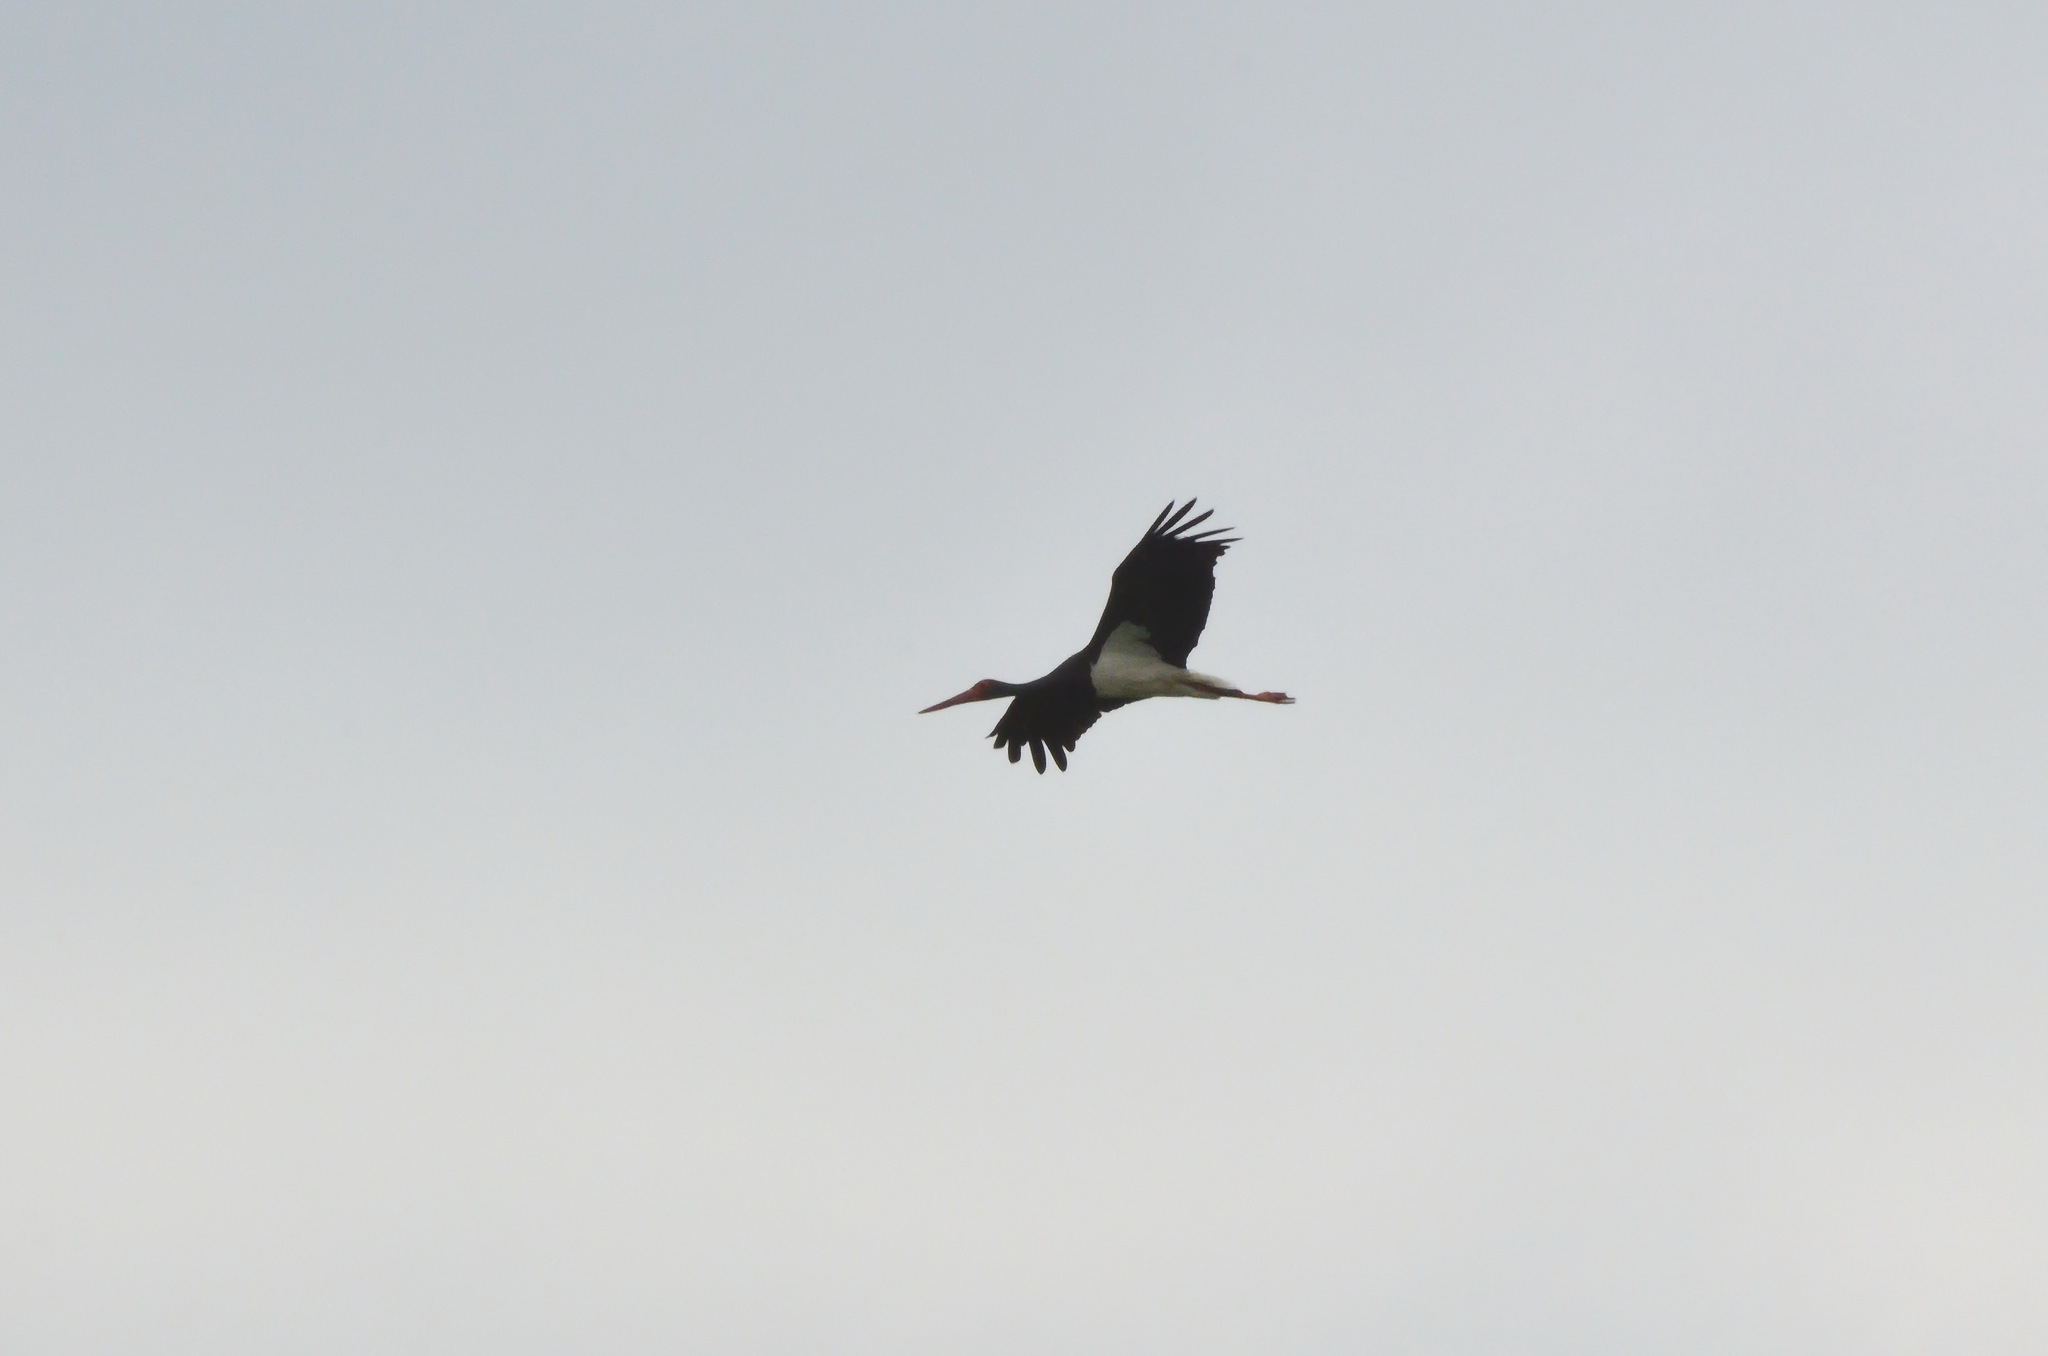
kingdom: Animalia
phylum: Chordata
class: Aves
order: Ciconiiformes
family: Ciconiidae
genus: Ciconia
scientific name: Ciconia nigra
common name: Black stork
